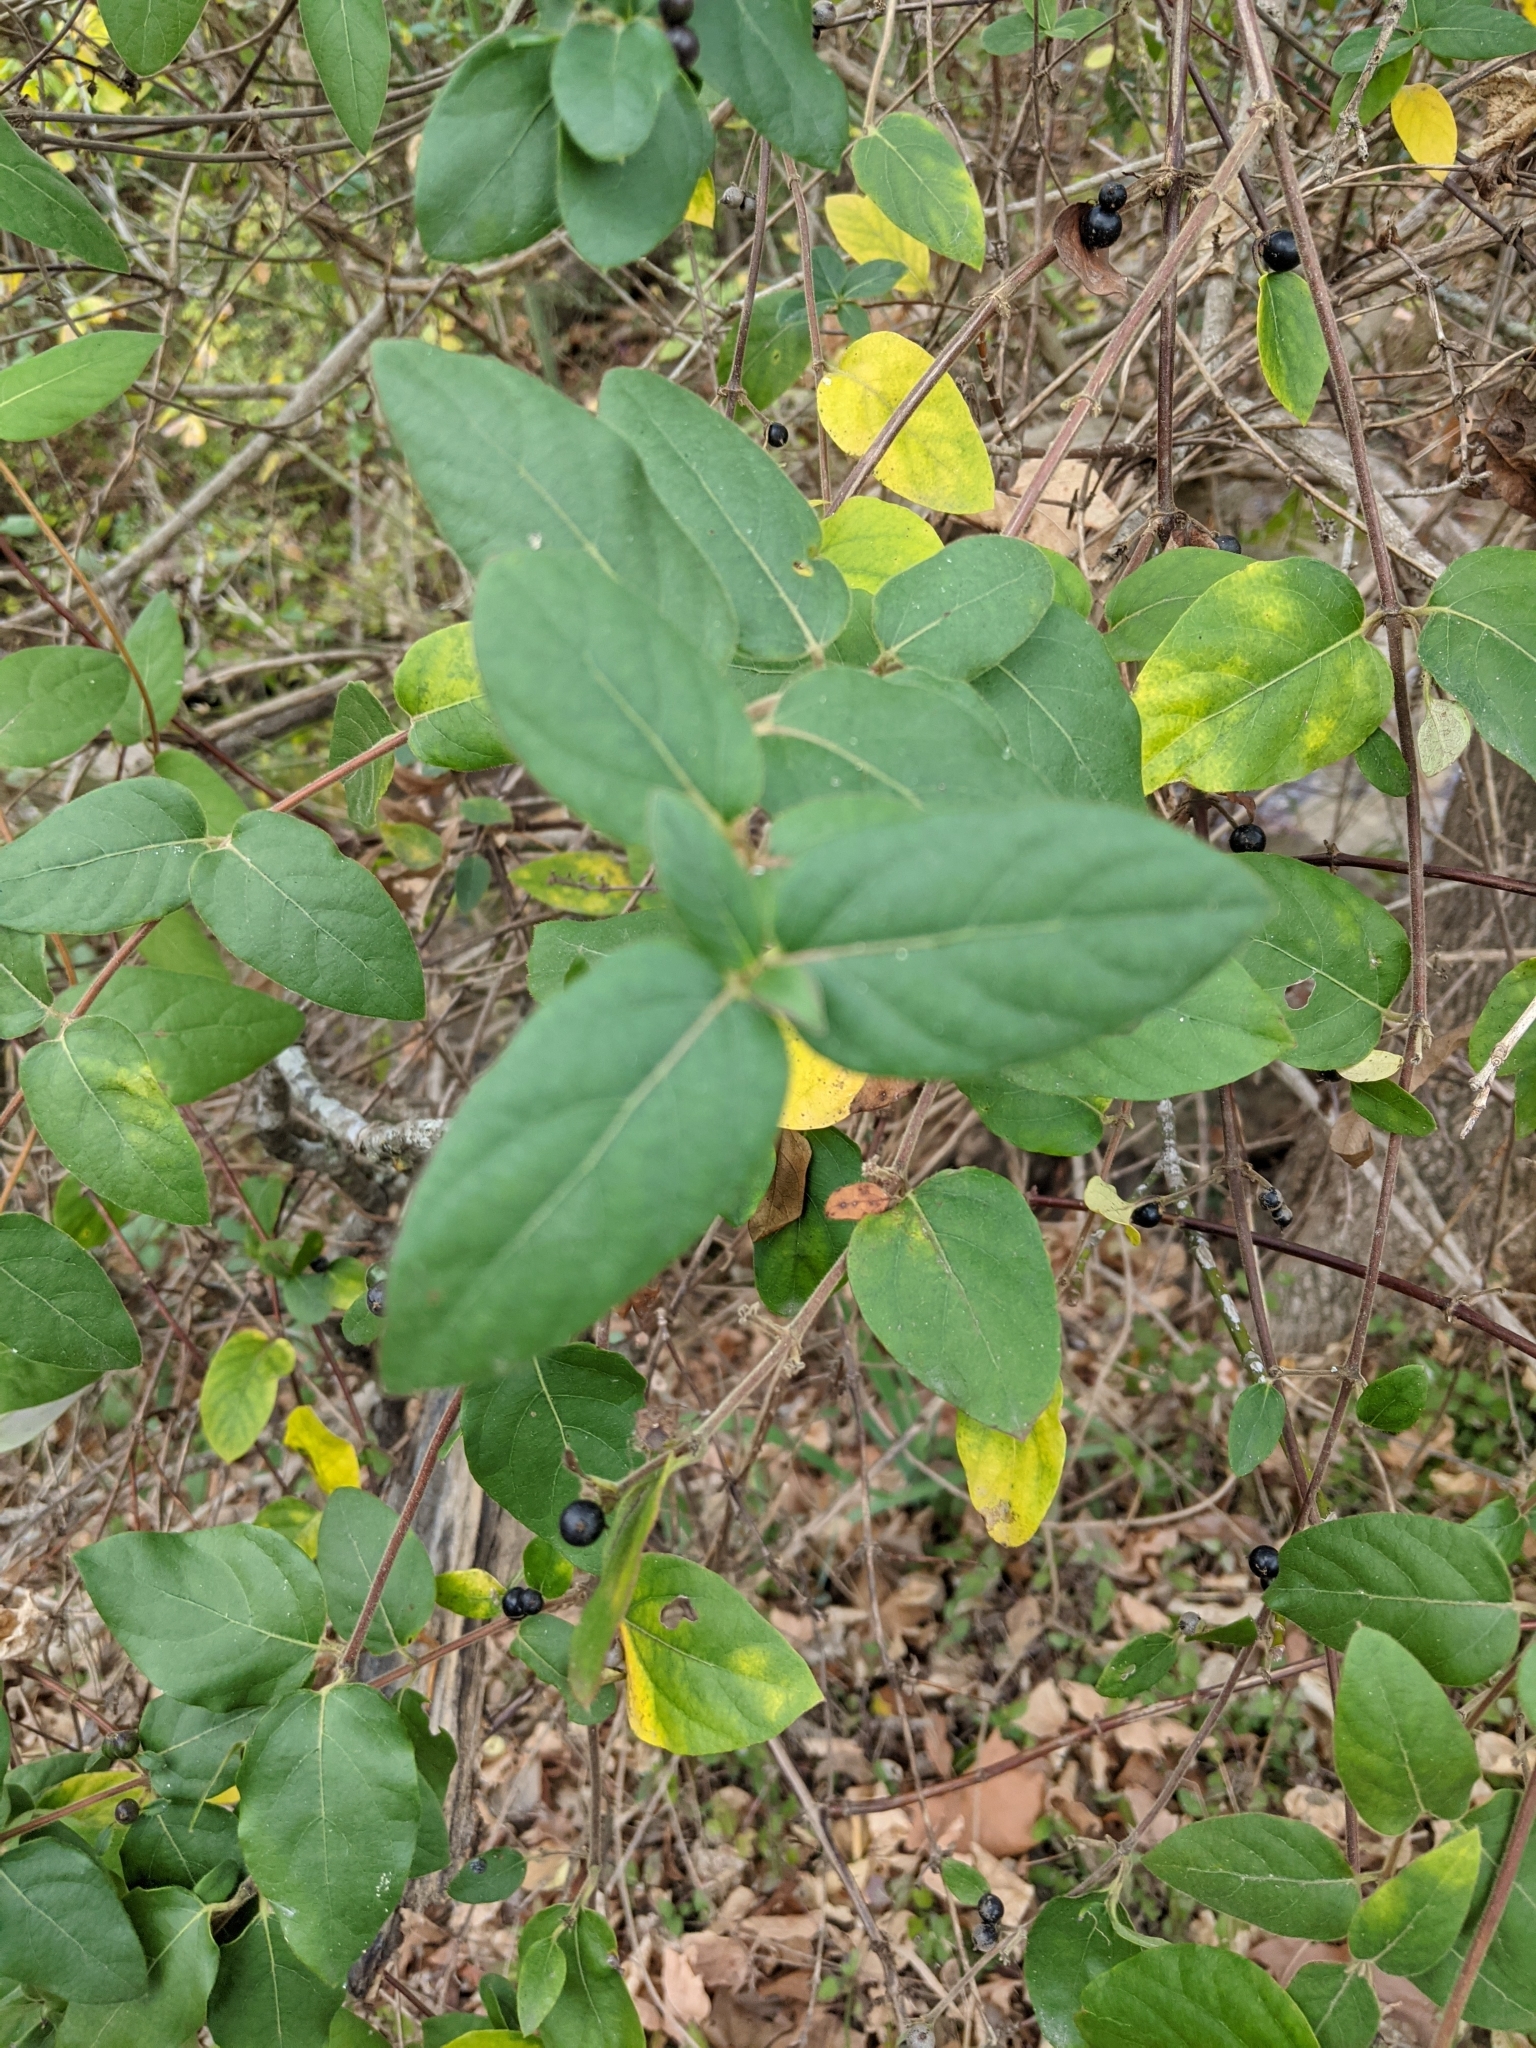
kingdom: Plantae
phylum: Tracheophyta
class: Magnoliopsida
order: Dipsacales
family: Caprifoliaceae
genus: Lonicera
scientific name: Lonicera japonica
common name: Japanese honeysuckle
